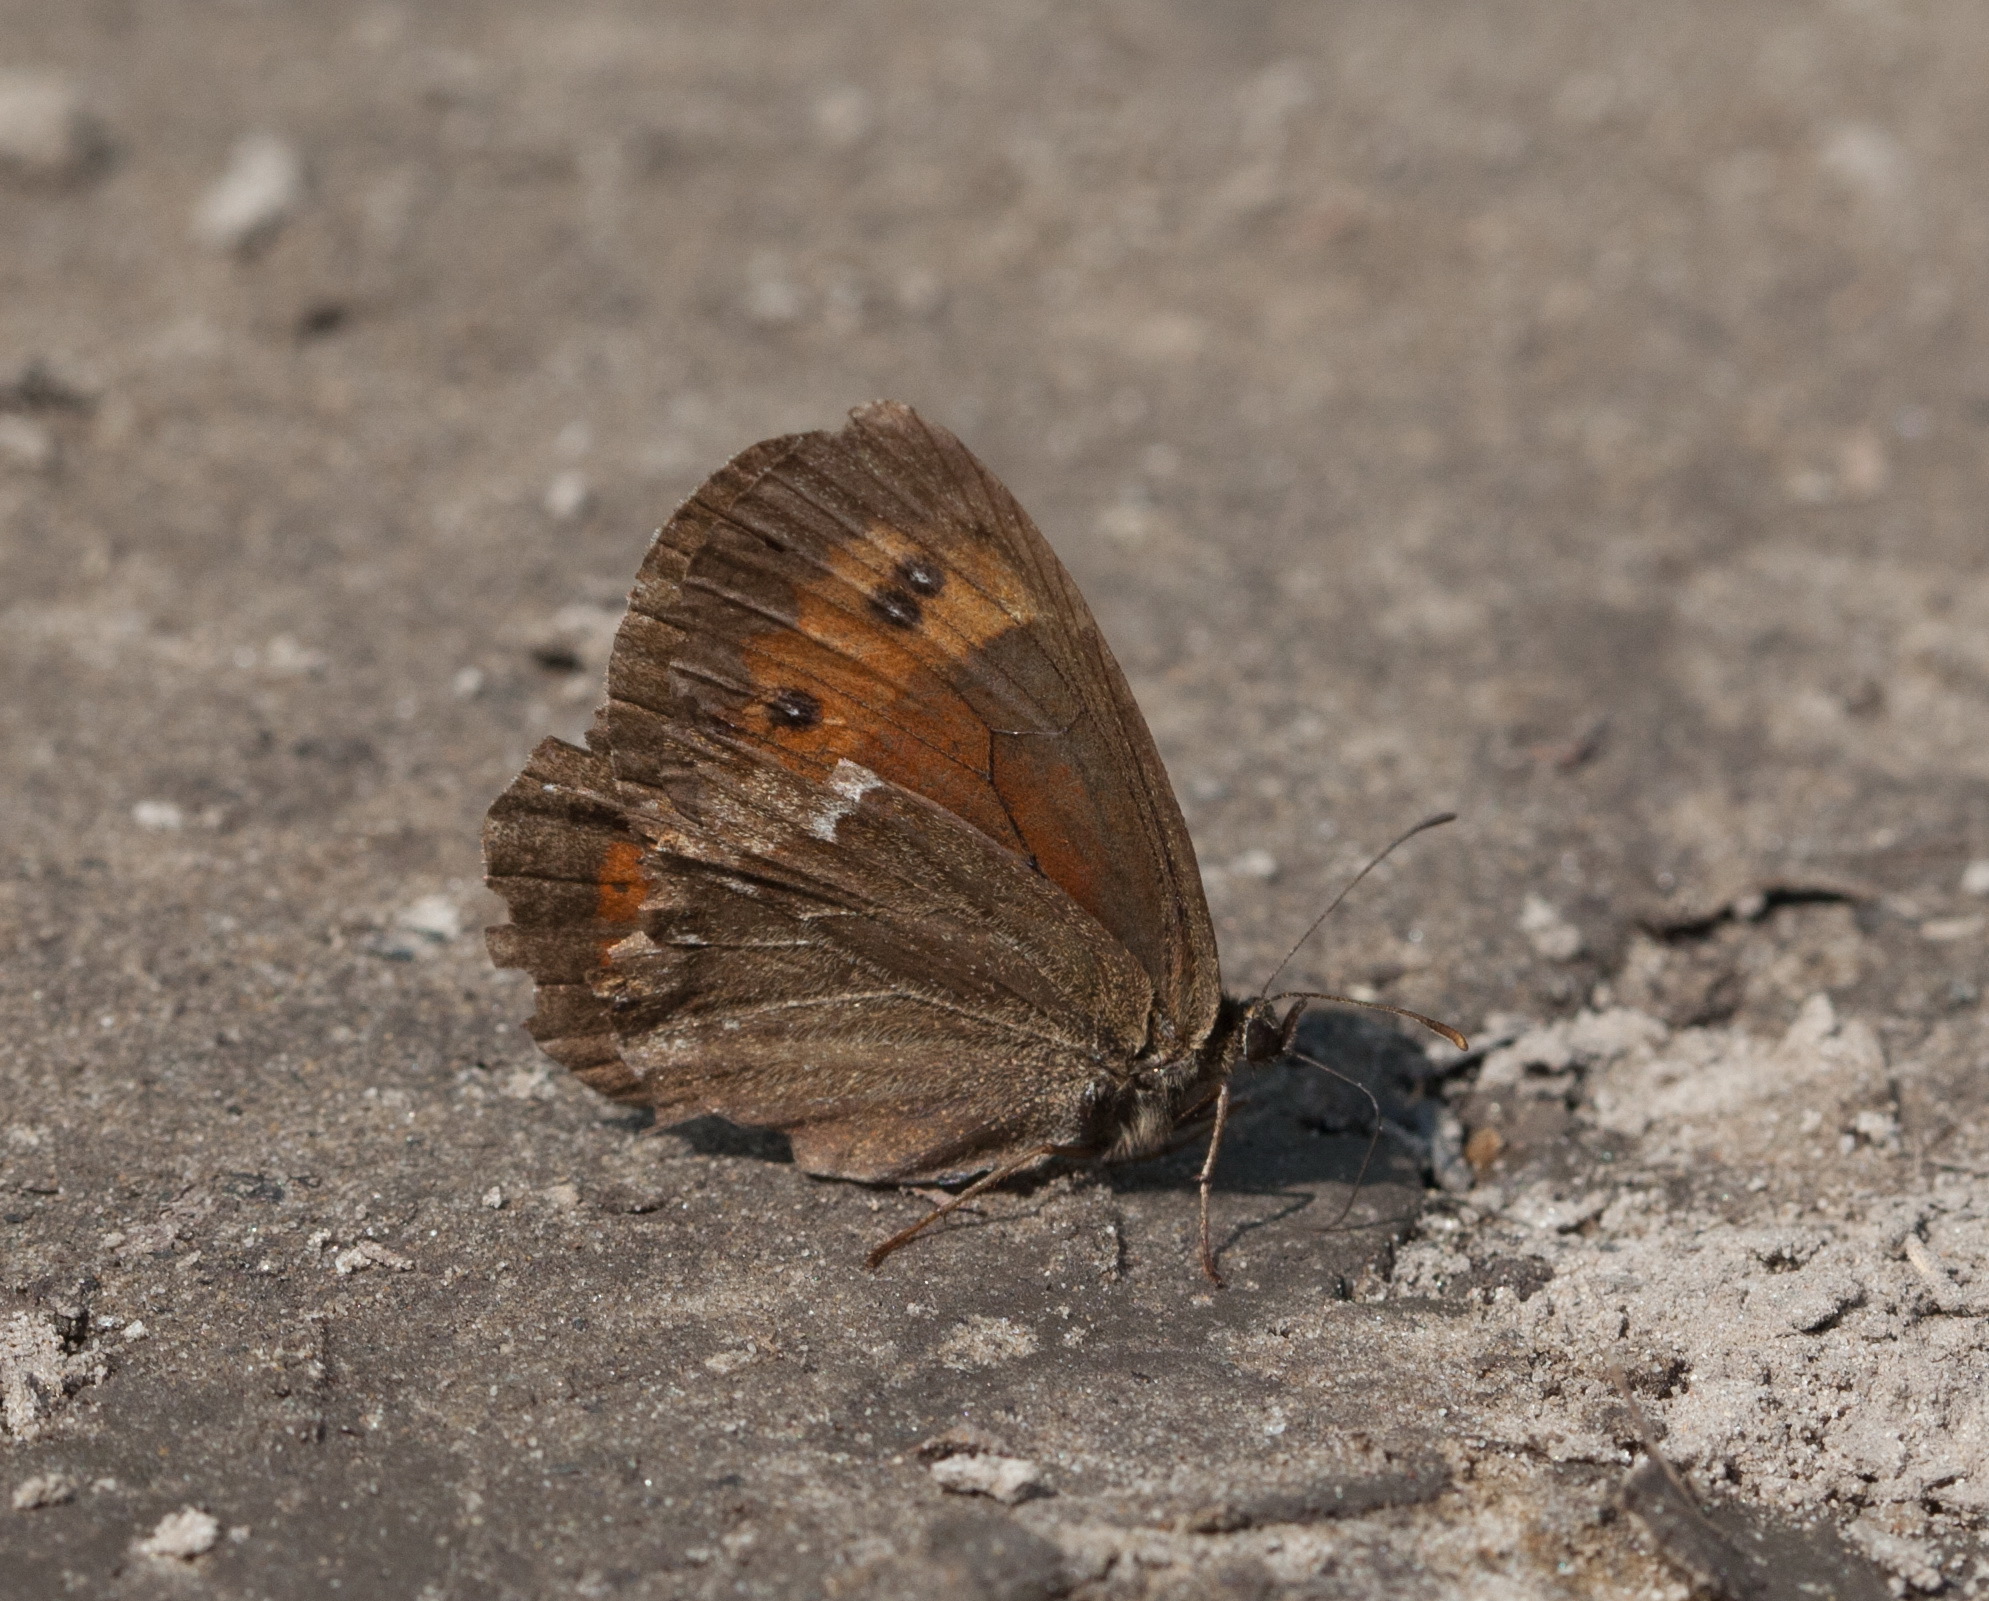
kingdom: Animalia
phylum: Arthropoda
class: Insecta
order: Lepidoptera
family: Nymphalidae
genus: Erebia
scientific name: Erebia ligea
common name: Arran brown
